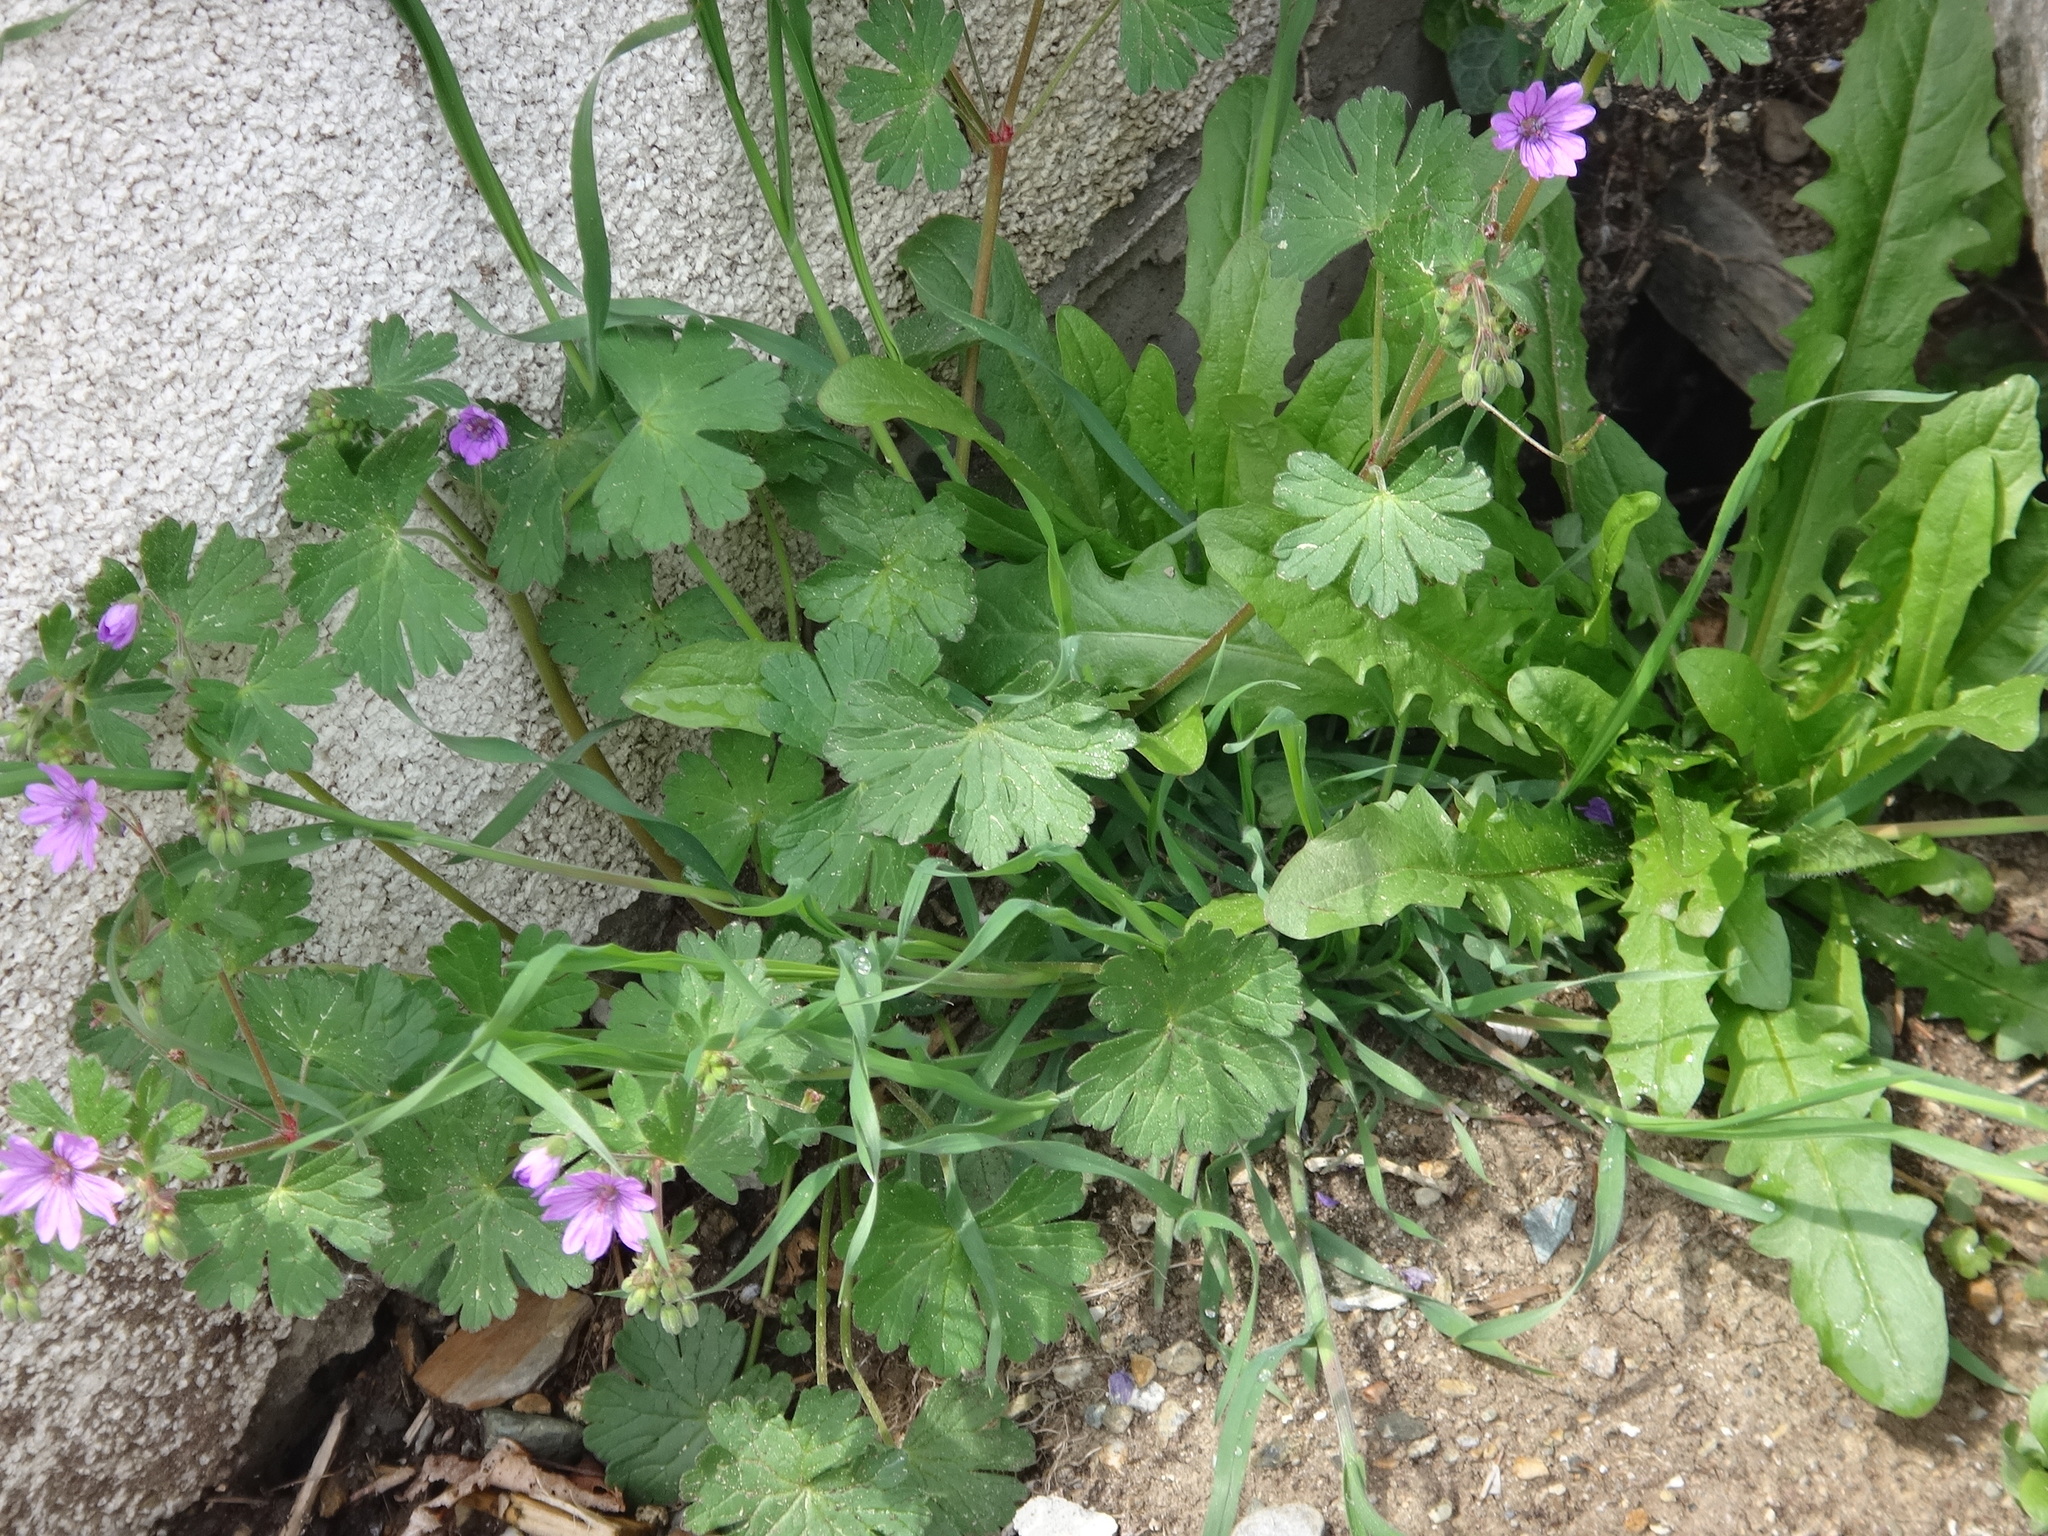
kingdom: Plantae
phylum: Tracheophyta
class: Magnoliopsida
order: Geraniales
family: Geraniaceae
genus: Geranium
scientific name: Geranium pyrenaicum
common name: Hedgerow crane's-bill
